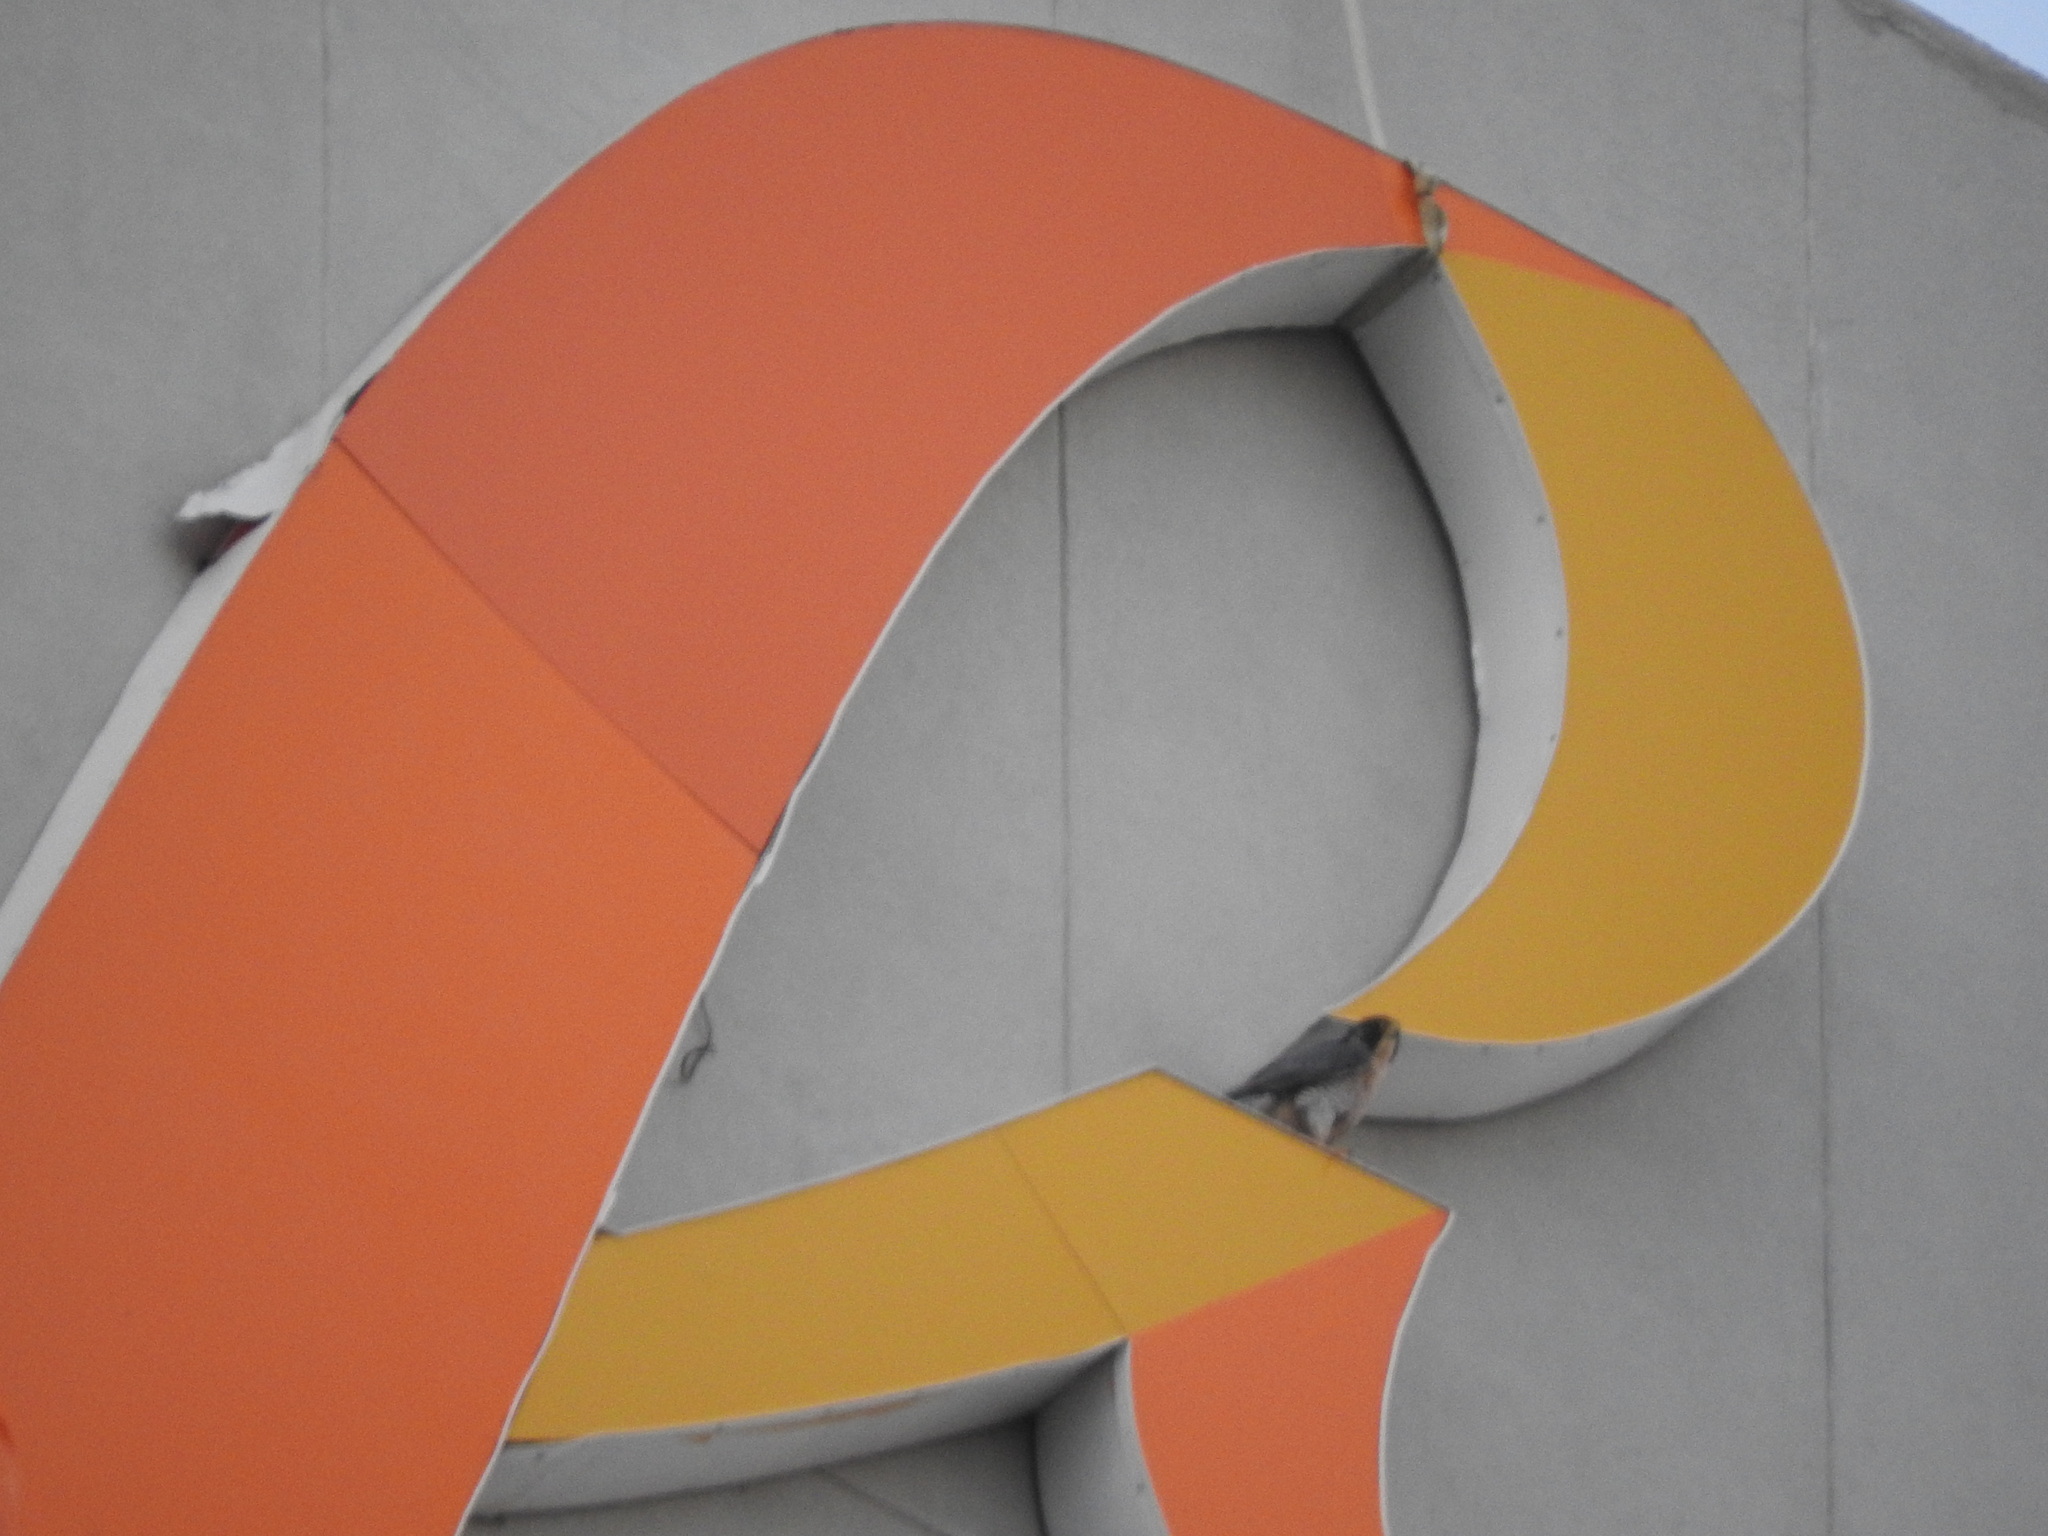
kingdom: Animalia
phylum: Chordata
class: Aves
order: Falconiformes
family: Falconidae
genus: Falco
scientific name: Falco peregrinus
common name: Peregrine falcon
